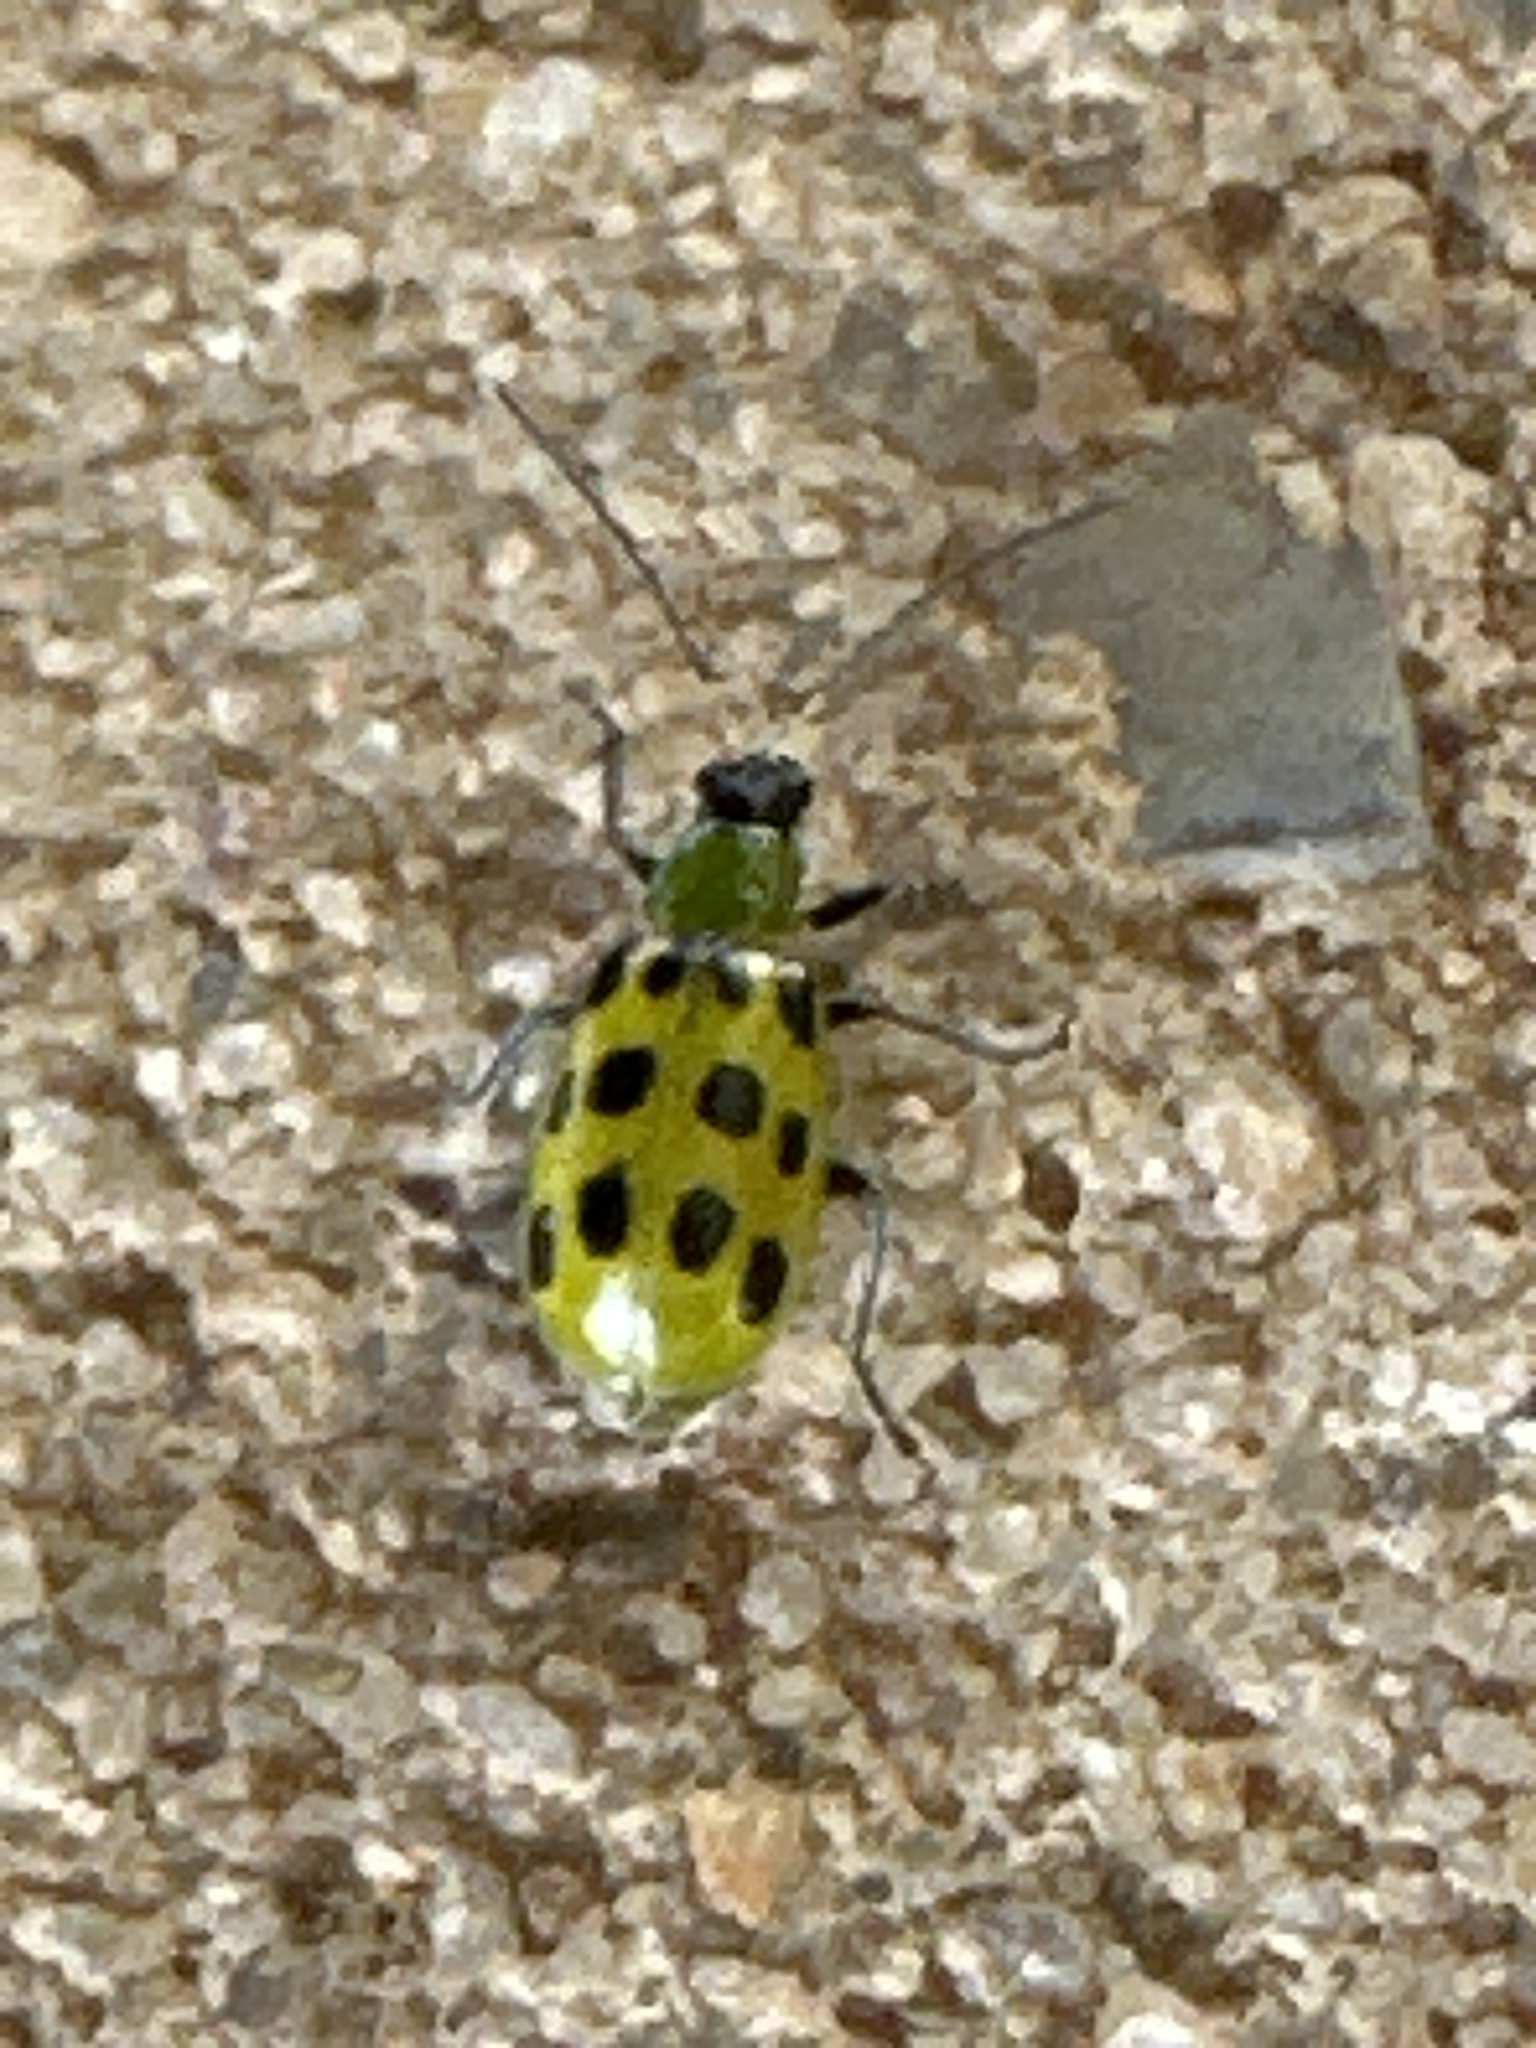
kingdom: Animalia
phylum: Arthropoda
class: Insecta
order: Coleoptera
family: Chrysomelidae
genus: Diabrotica
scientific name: Diabrotica undecimpunctata
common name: Spotted cucumber beetle
